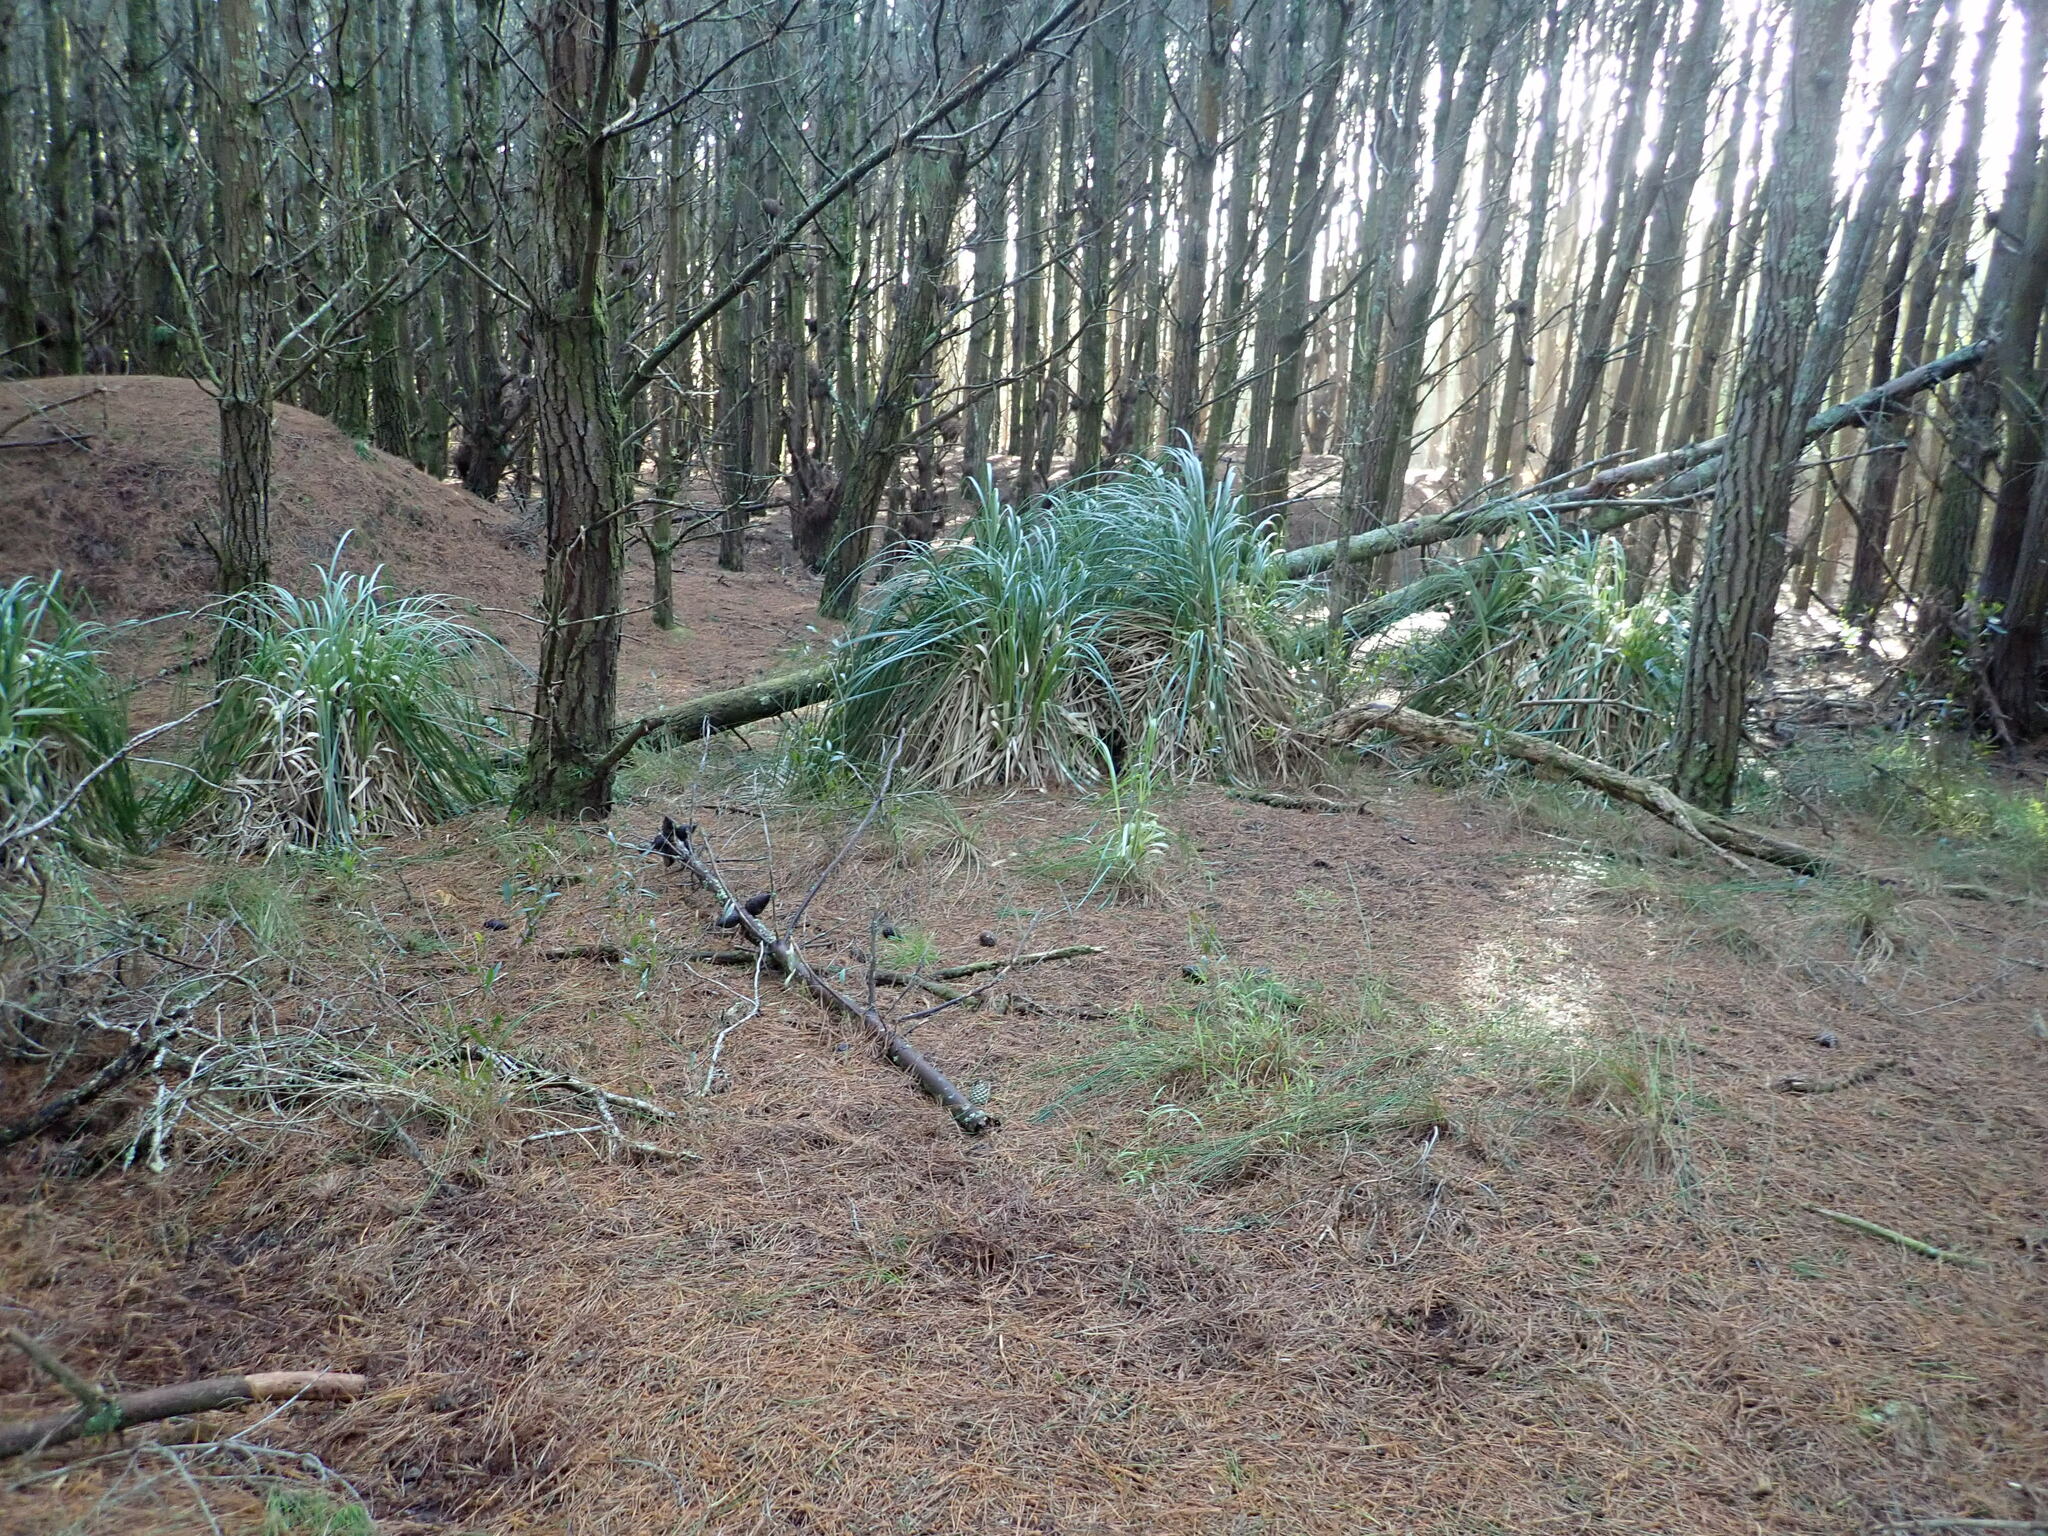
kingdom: Plantae
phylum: Tracheophyta
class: Liliopsida
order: Poales
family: Poaceae
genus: Cortaderia
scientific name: Cortaderia selloana
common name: Uruguayan pampas grass
